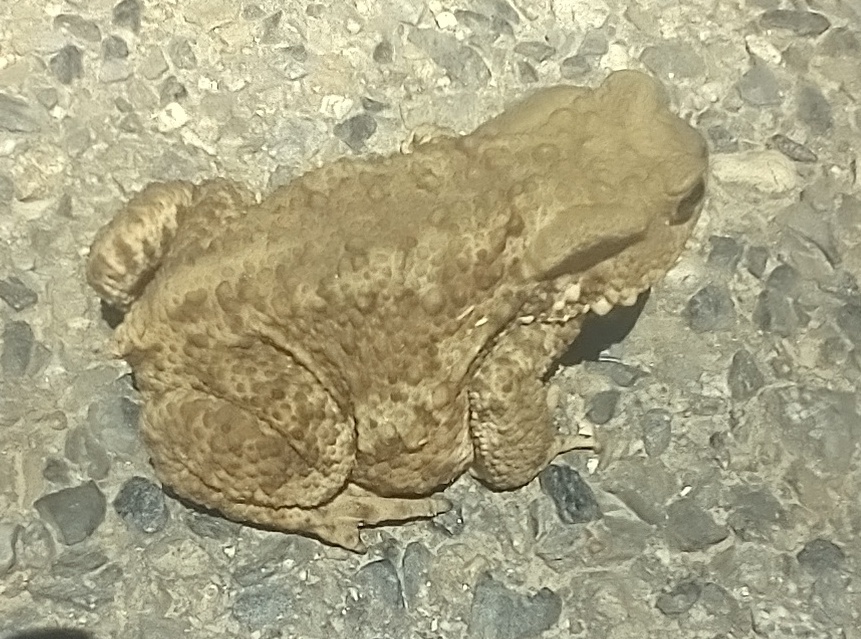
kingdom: Animalia
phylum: Chordata
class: Amphibia
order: Anura
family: Bufonidae
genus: Bufo
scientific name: Bufo bufo
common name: Common toad
